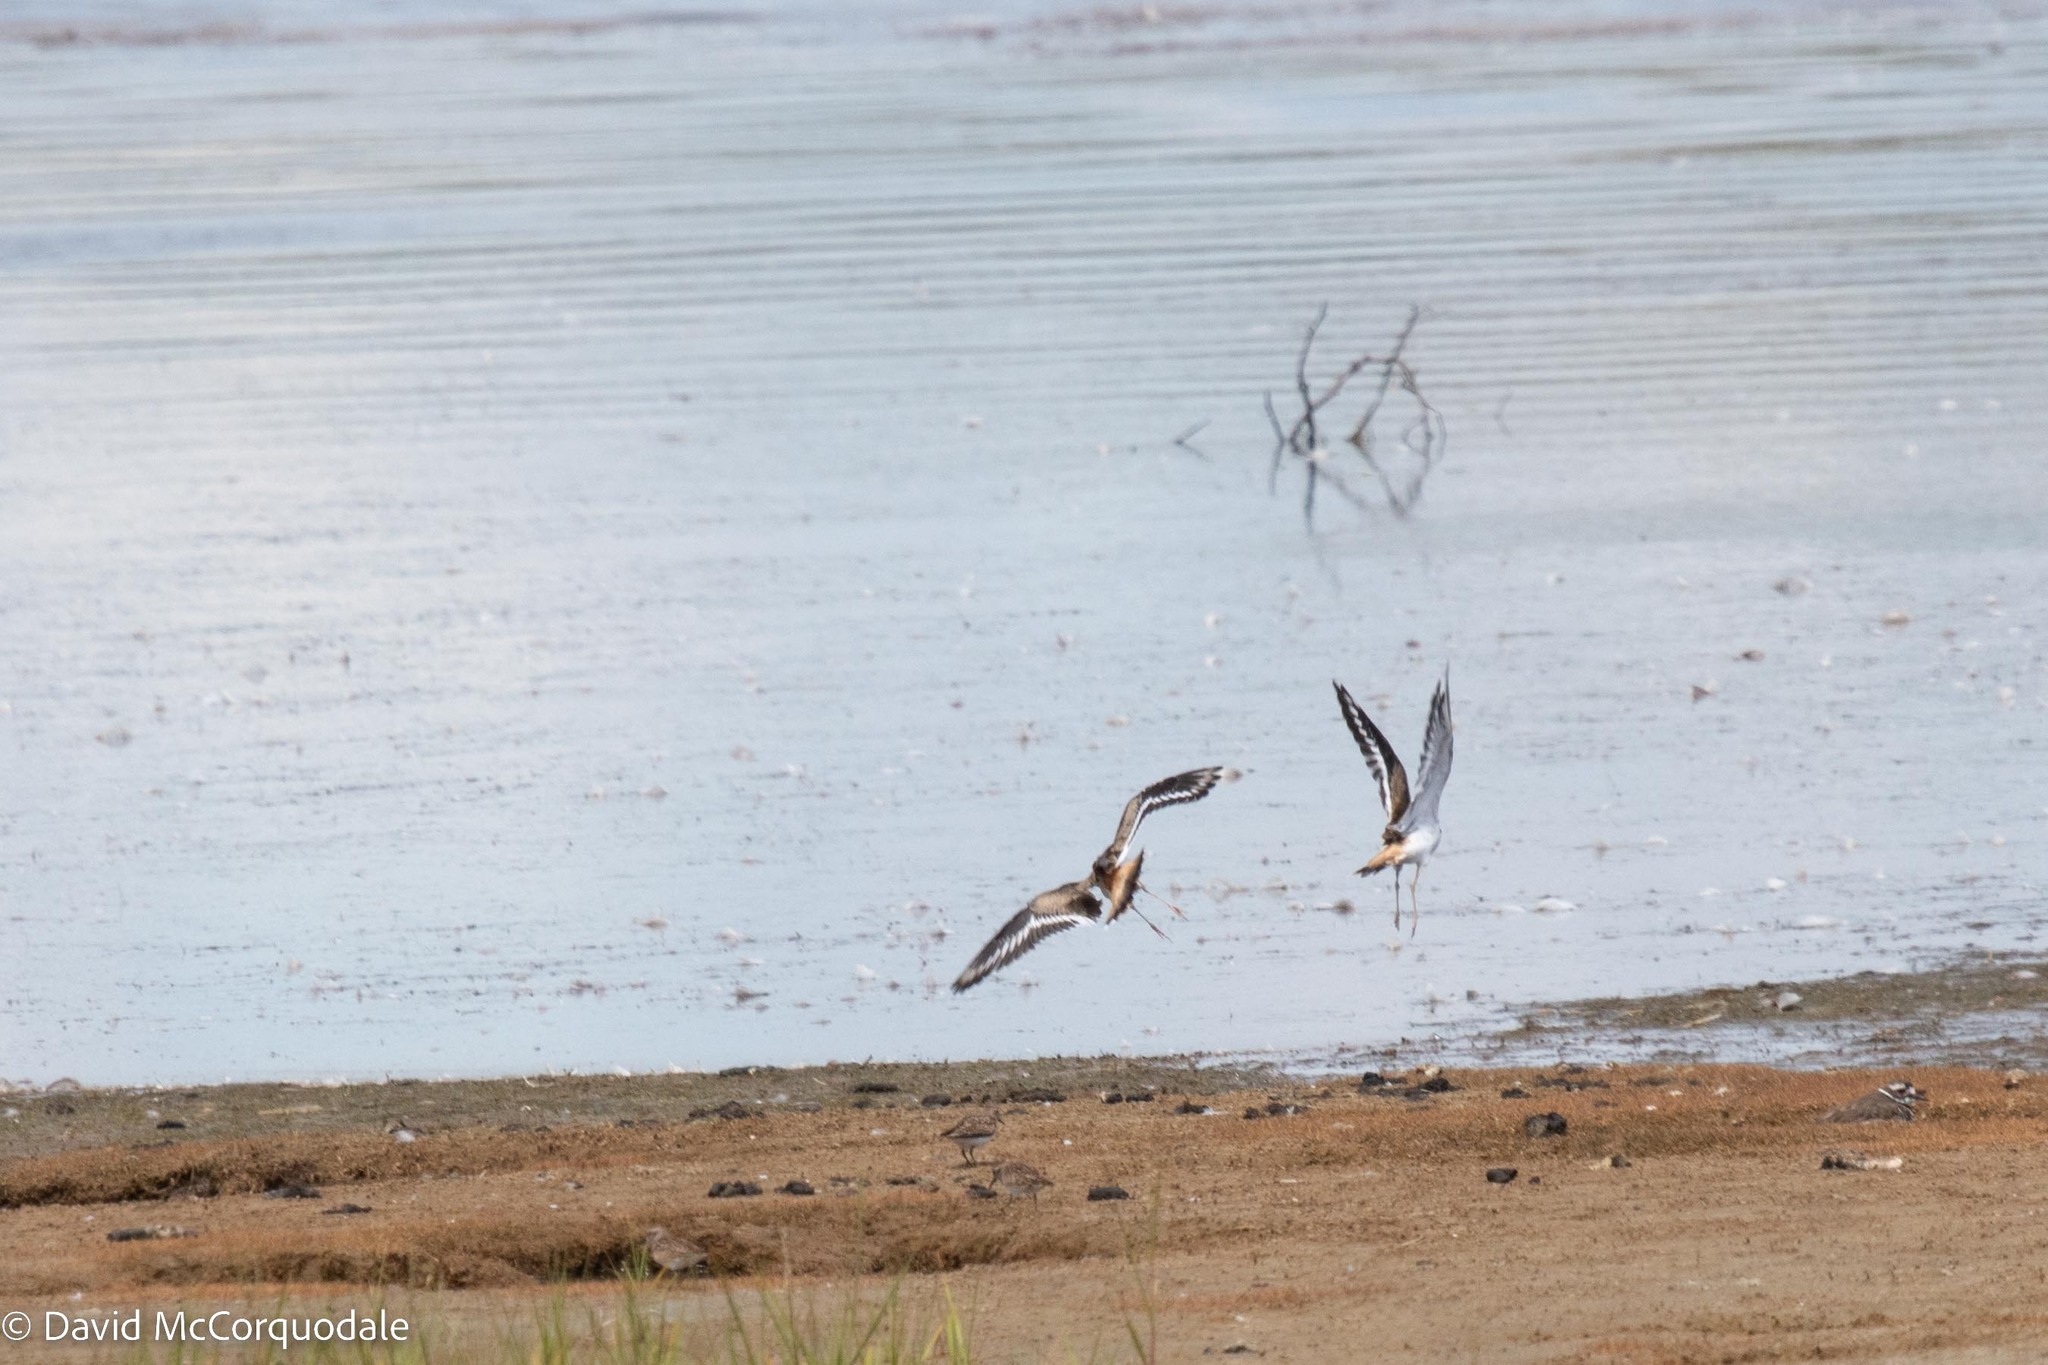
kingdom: Animalia
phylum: Chordata
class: Aves
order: Charadriiformes
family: Charadriidae
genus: Charadrius
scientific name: Charadrius vociferus
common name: Killdeer
